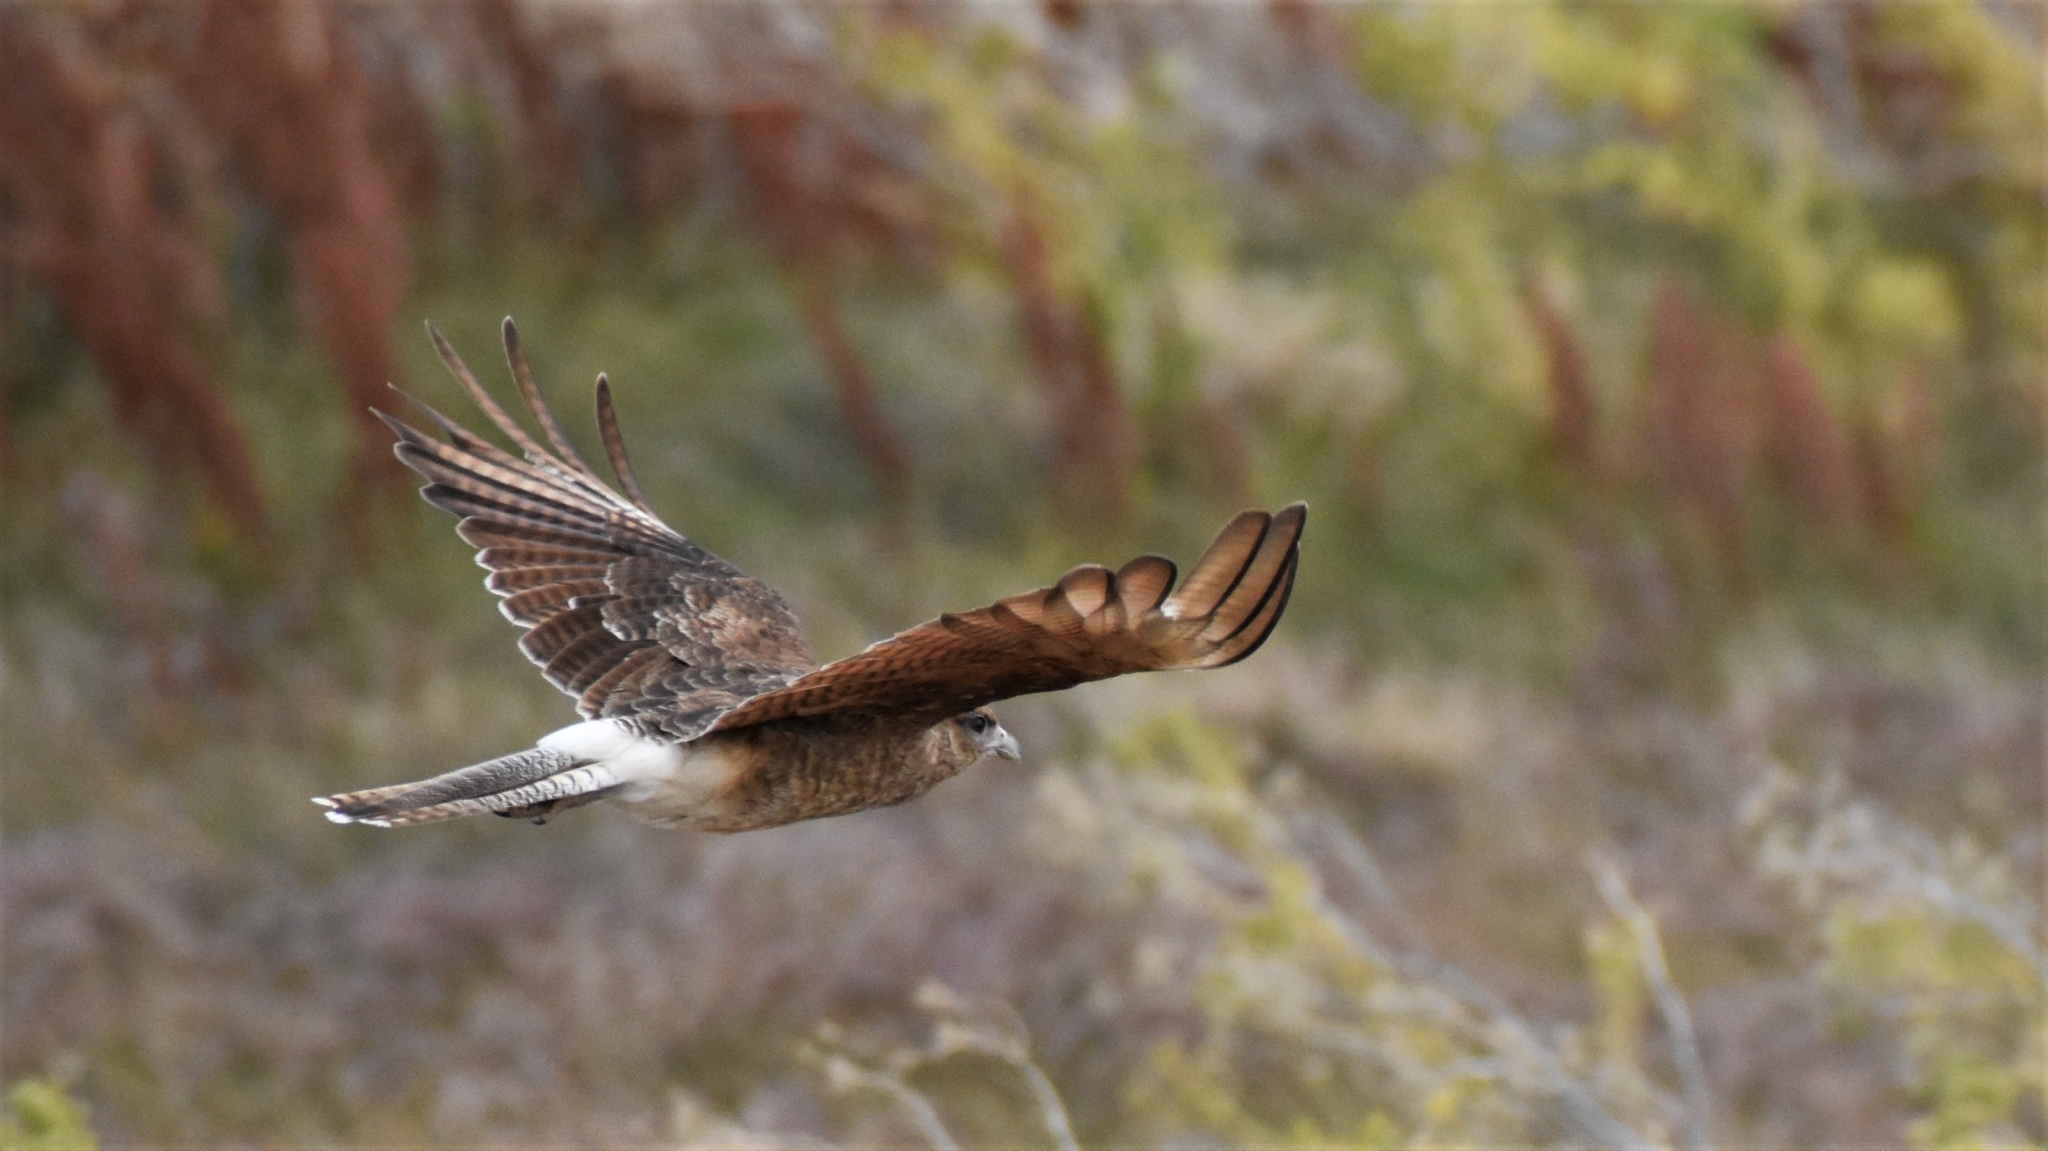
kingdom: Animalia
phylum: Chordata
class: Aves
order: Falconiformes
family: Falconidae
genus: Daptrius
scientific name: Daptrius
